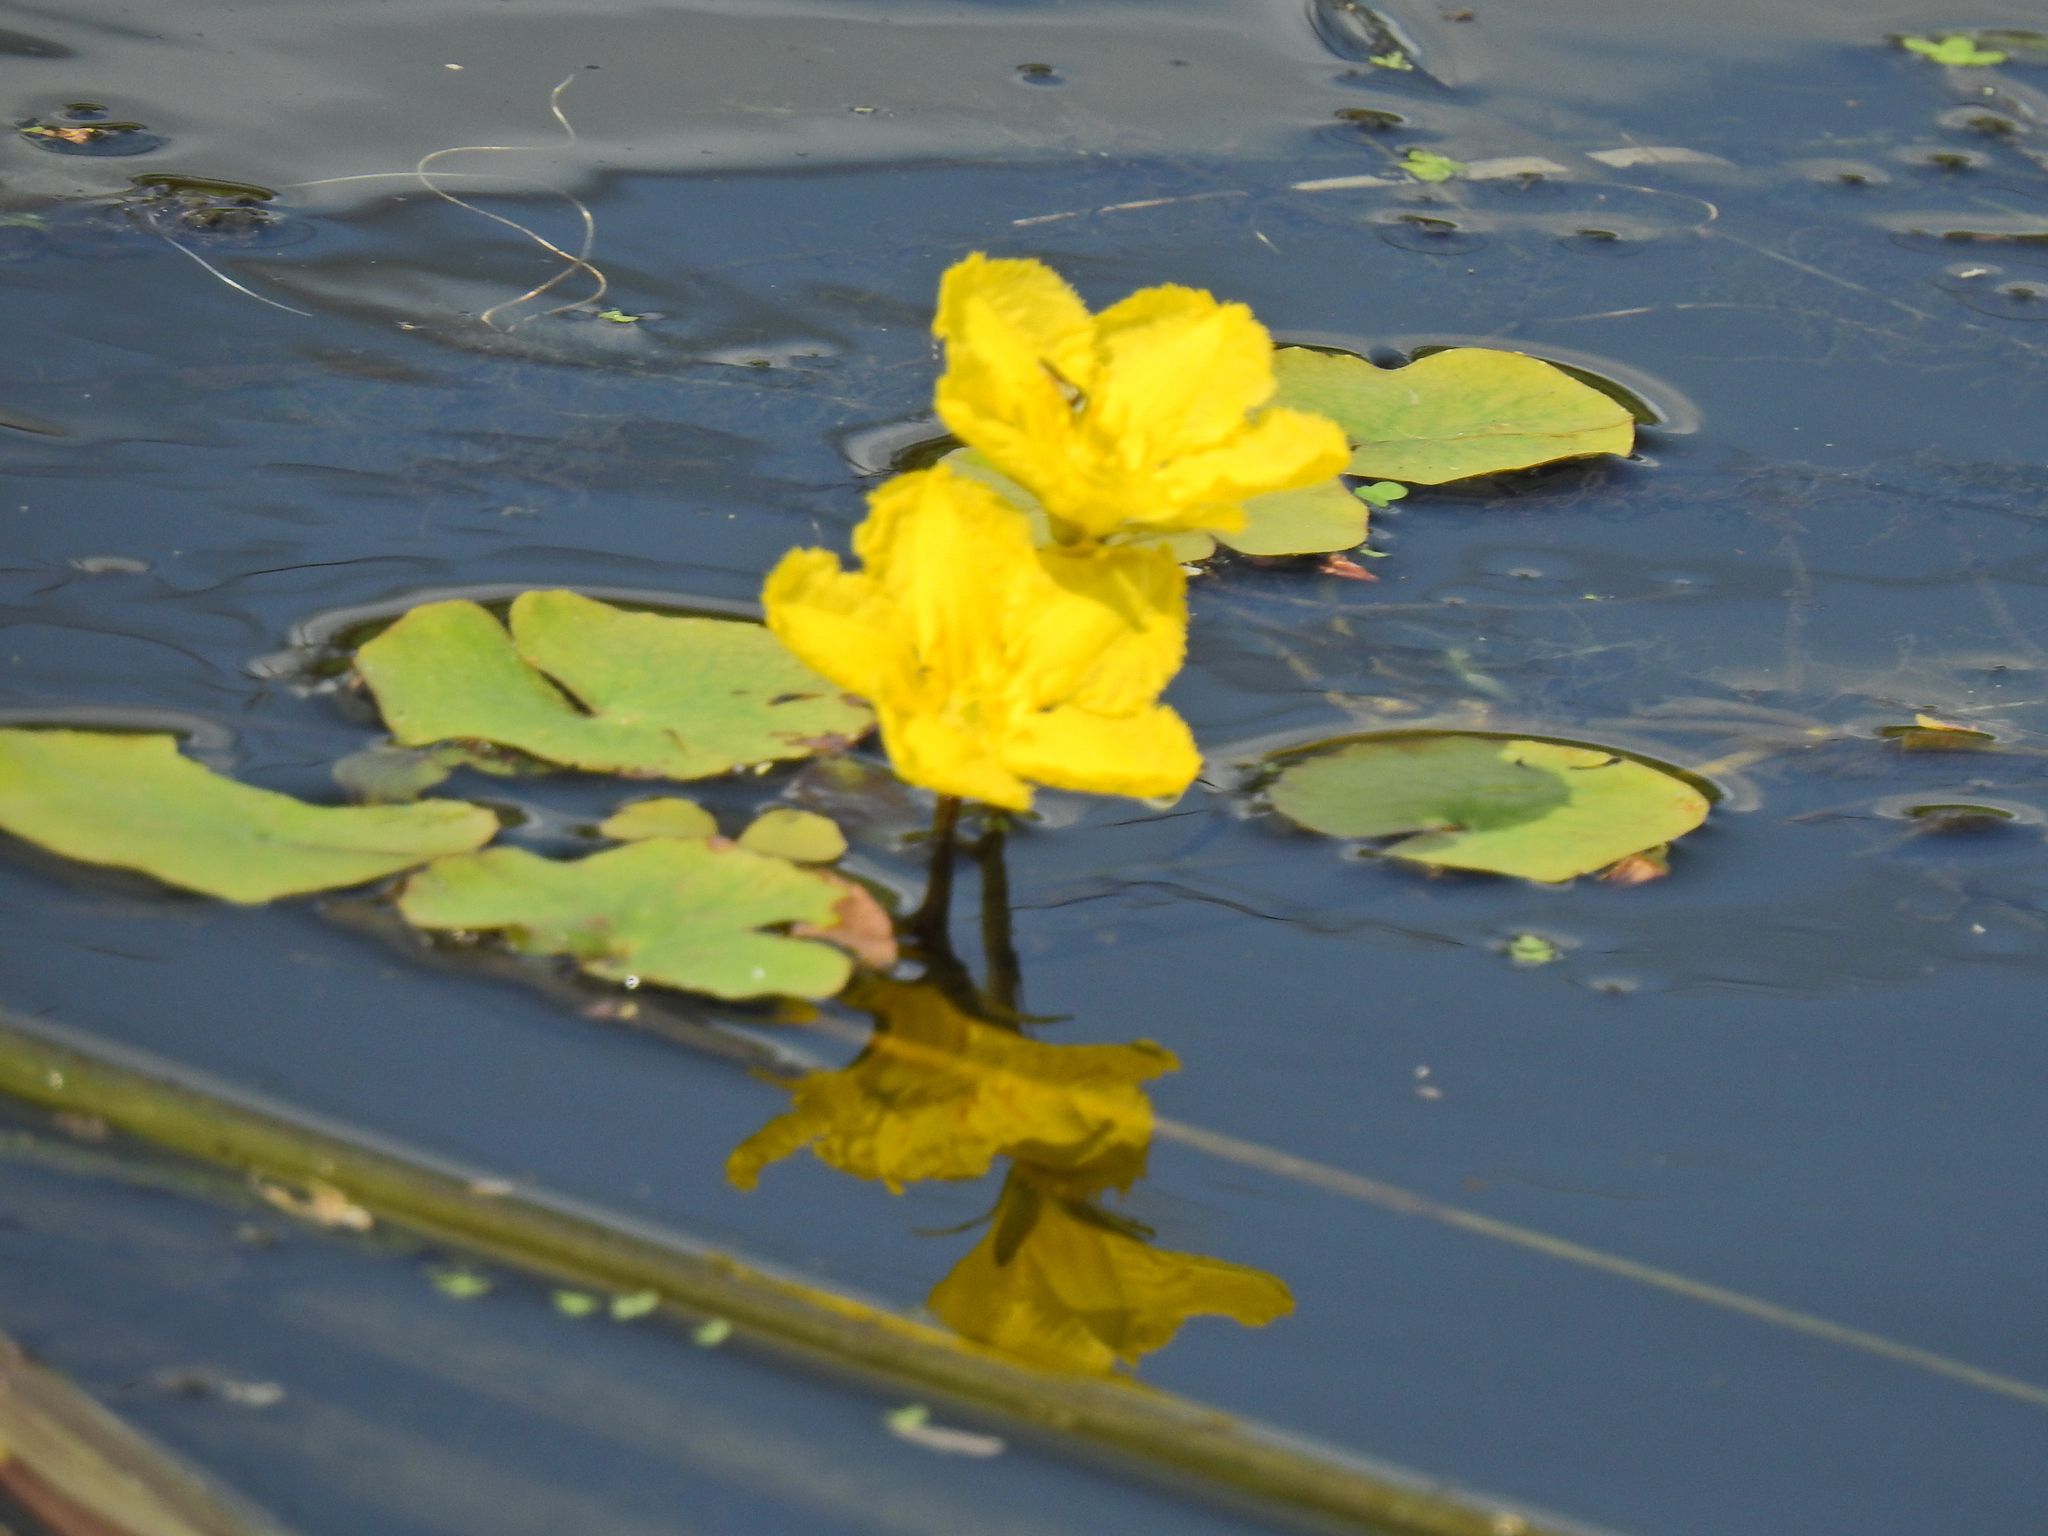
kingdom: Plantae
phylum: Tracheophyta
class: Magnoliopsida
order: Asterales
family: Menyanthaceae
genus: Nymphoides
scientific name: Nymphoides peltata
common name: Fringed water-lily
